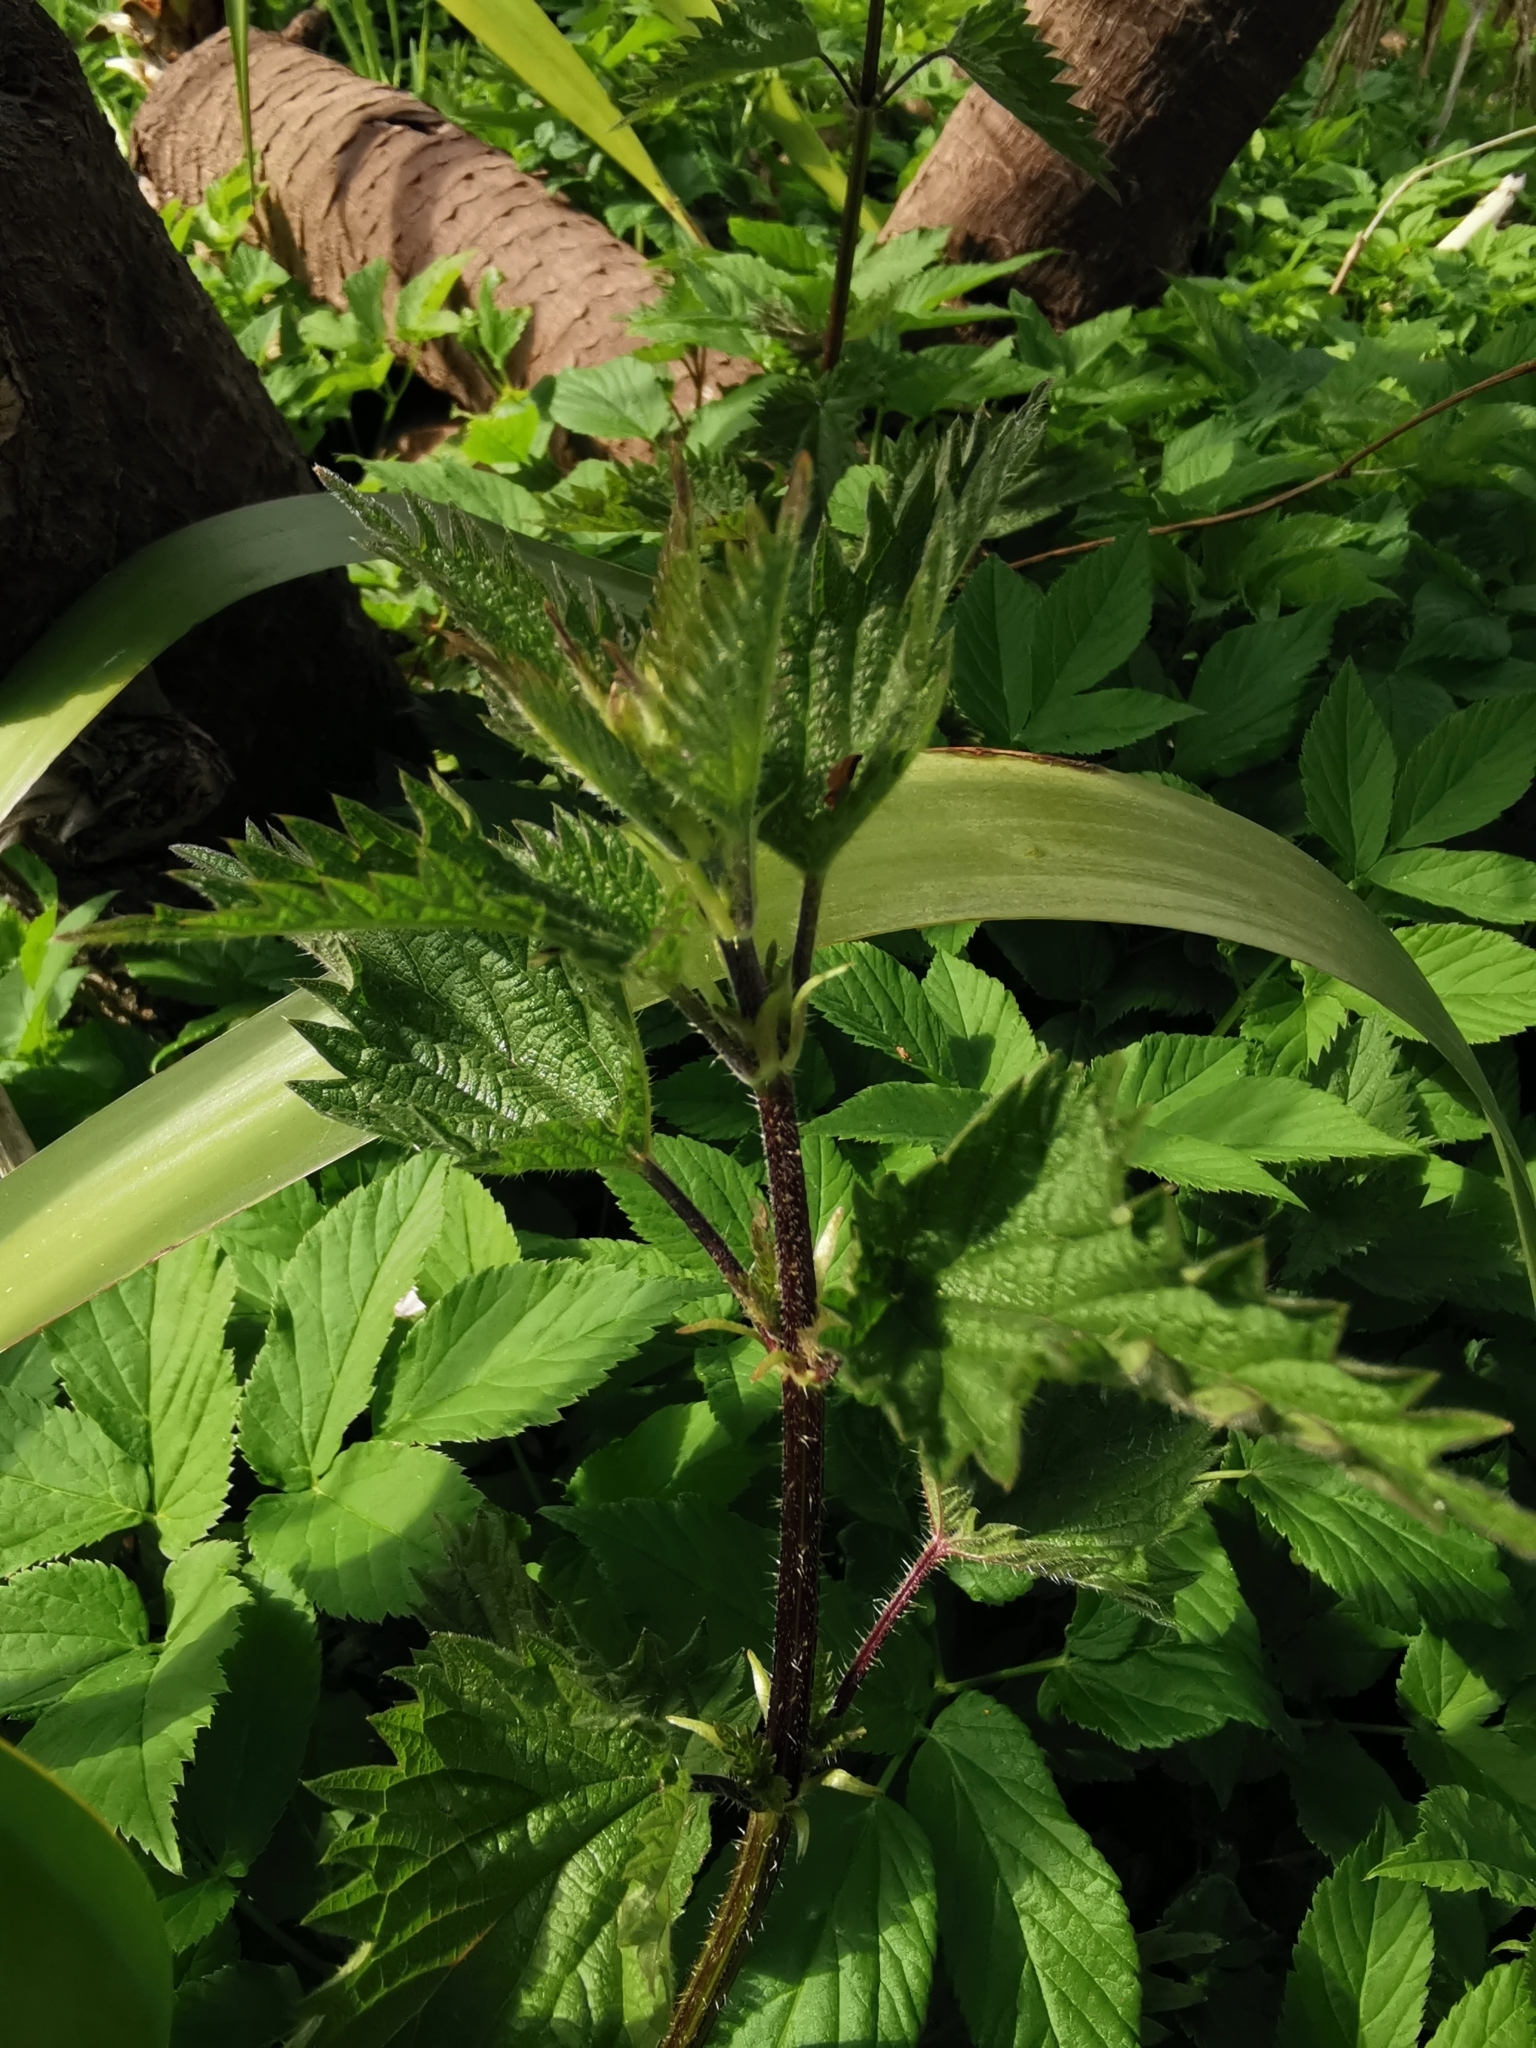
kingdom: Plantae
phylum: Tracheophyta
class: Magnoliopsida
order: Rosales
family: Urticaceae
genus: Urtica
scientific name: Urtica dioica
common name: Common nettle
